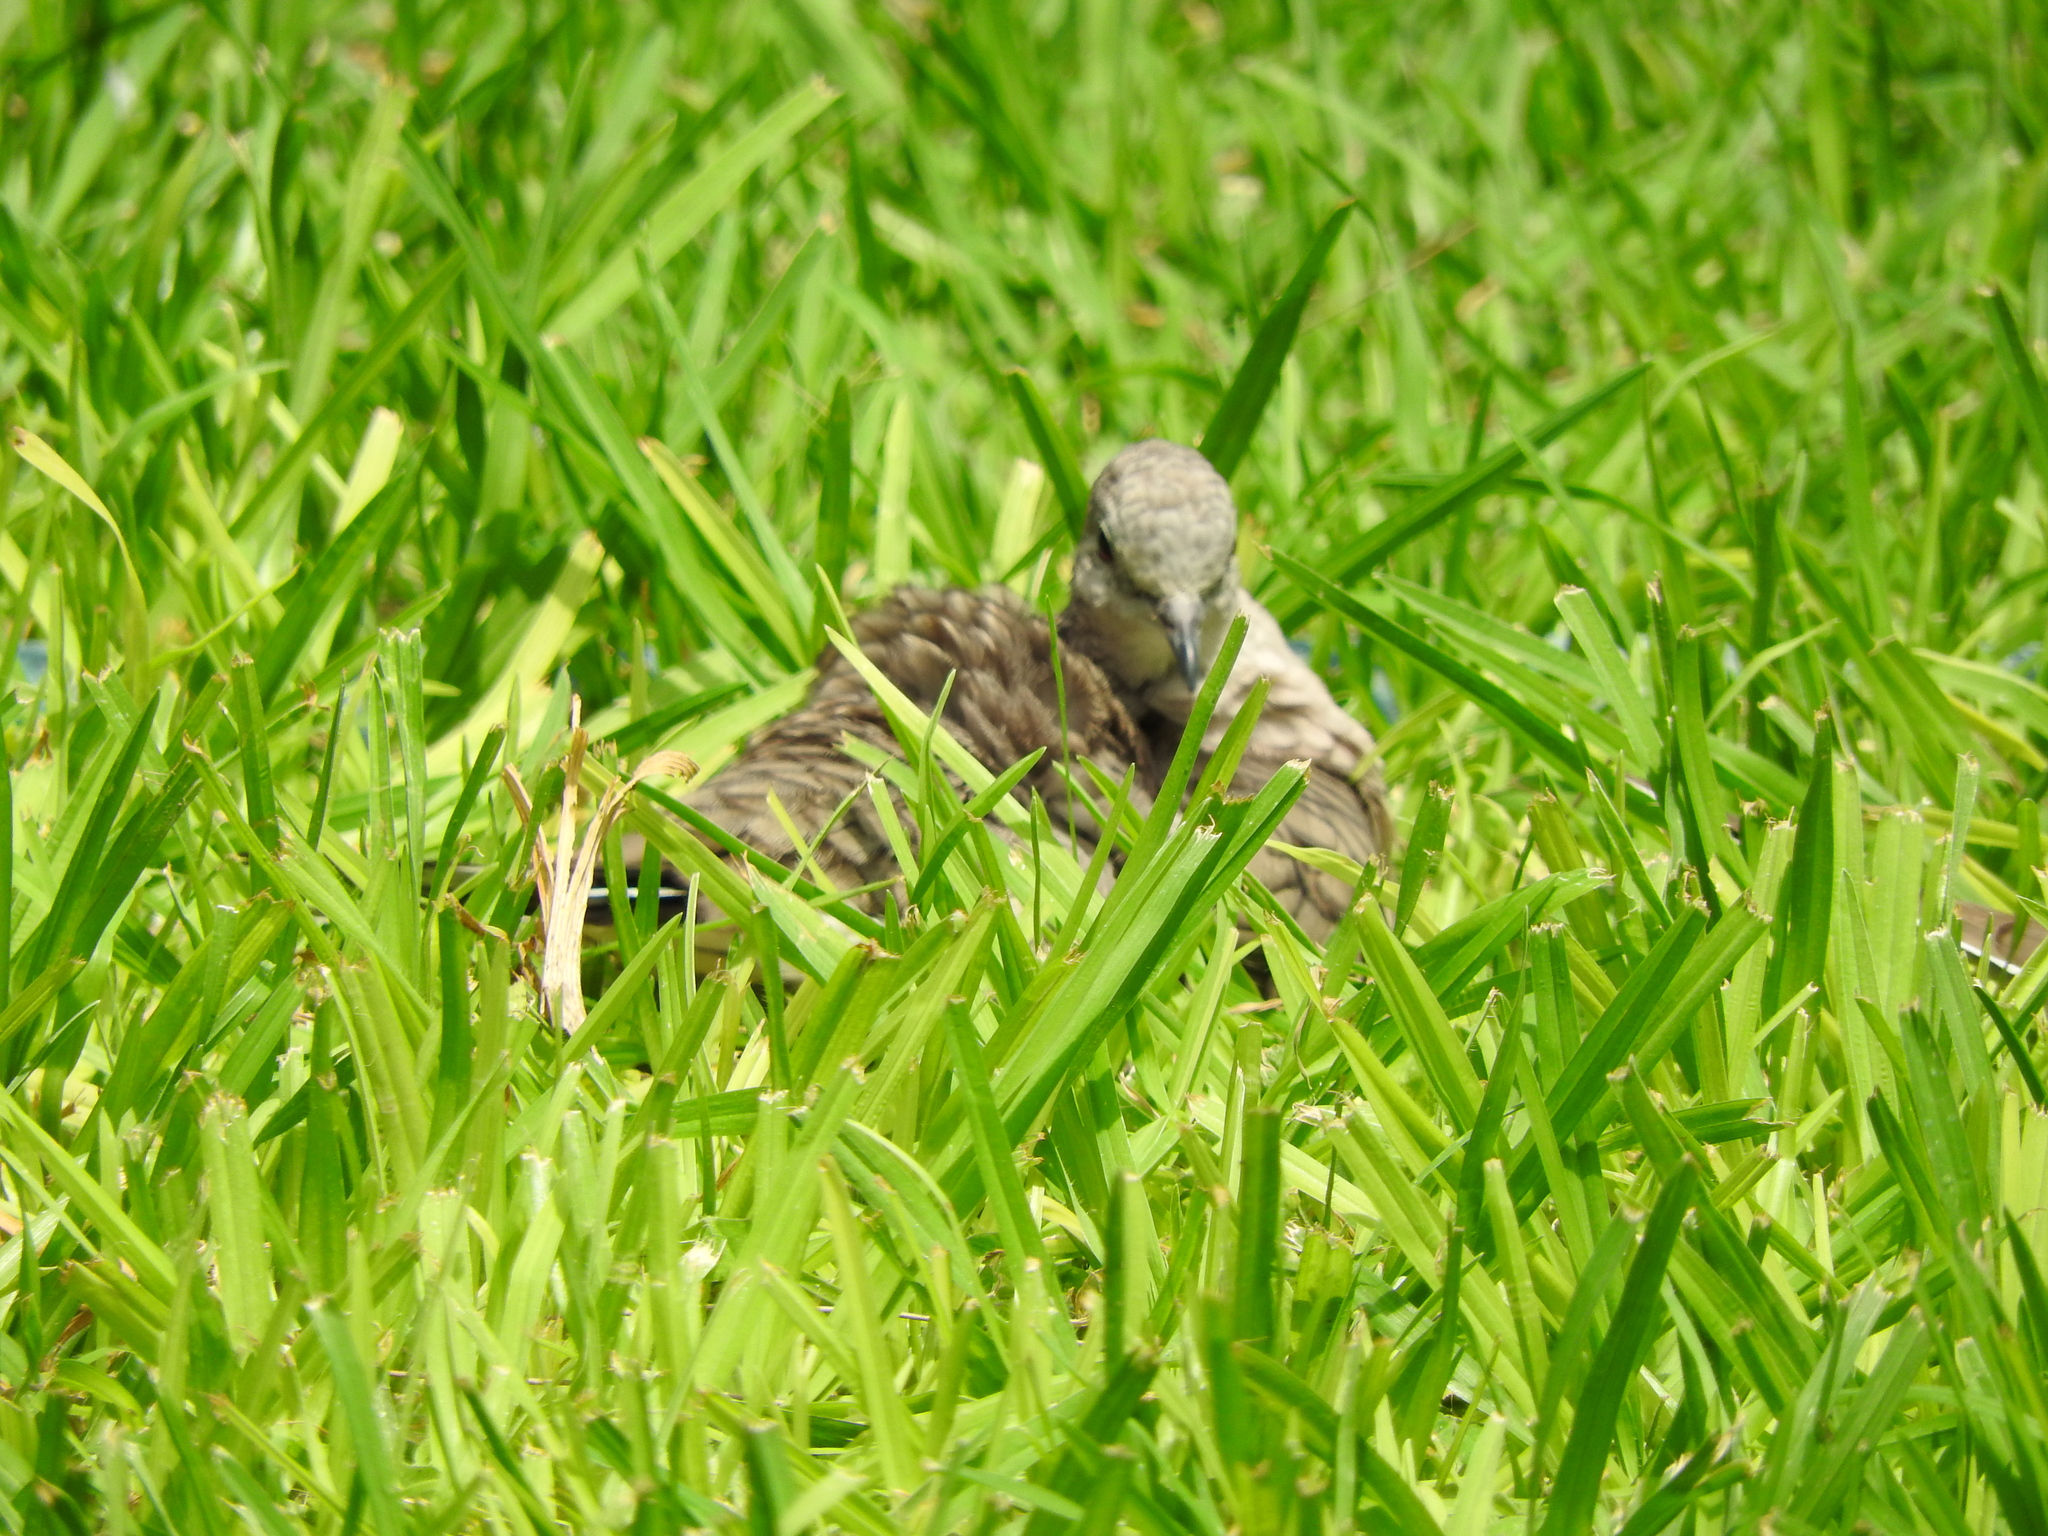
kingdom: Animalia
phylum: Chordata
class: Aves
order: Columbiformes
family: Columbidae
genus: Columbina
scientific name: Columbina inca
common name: Inca dove
